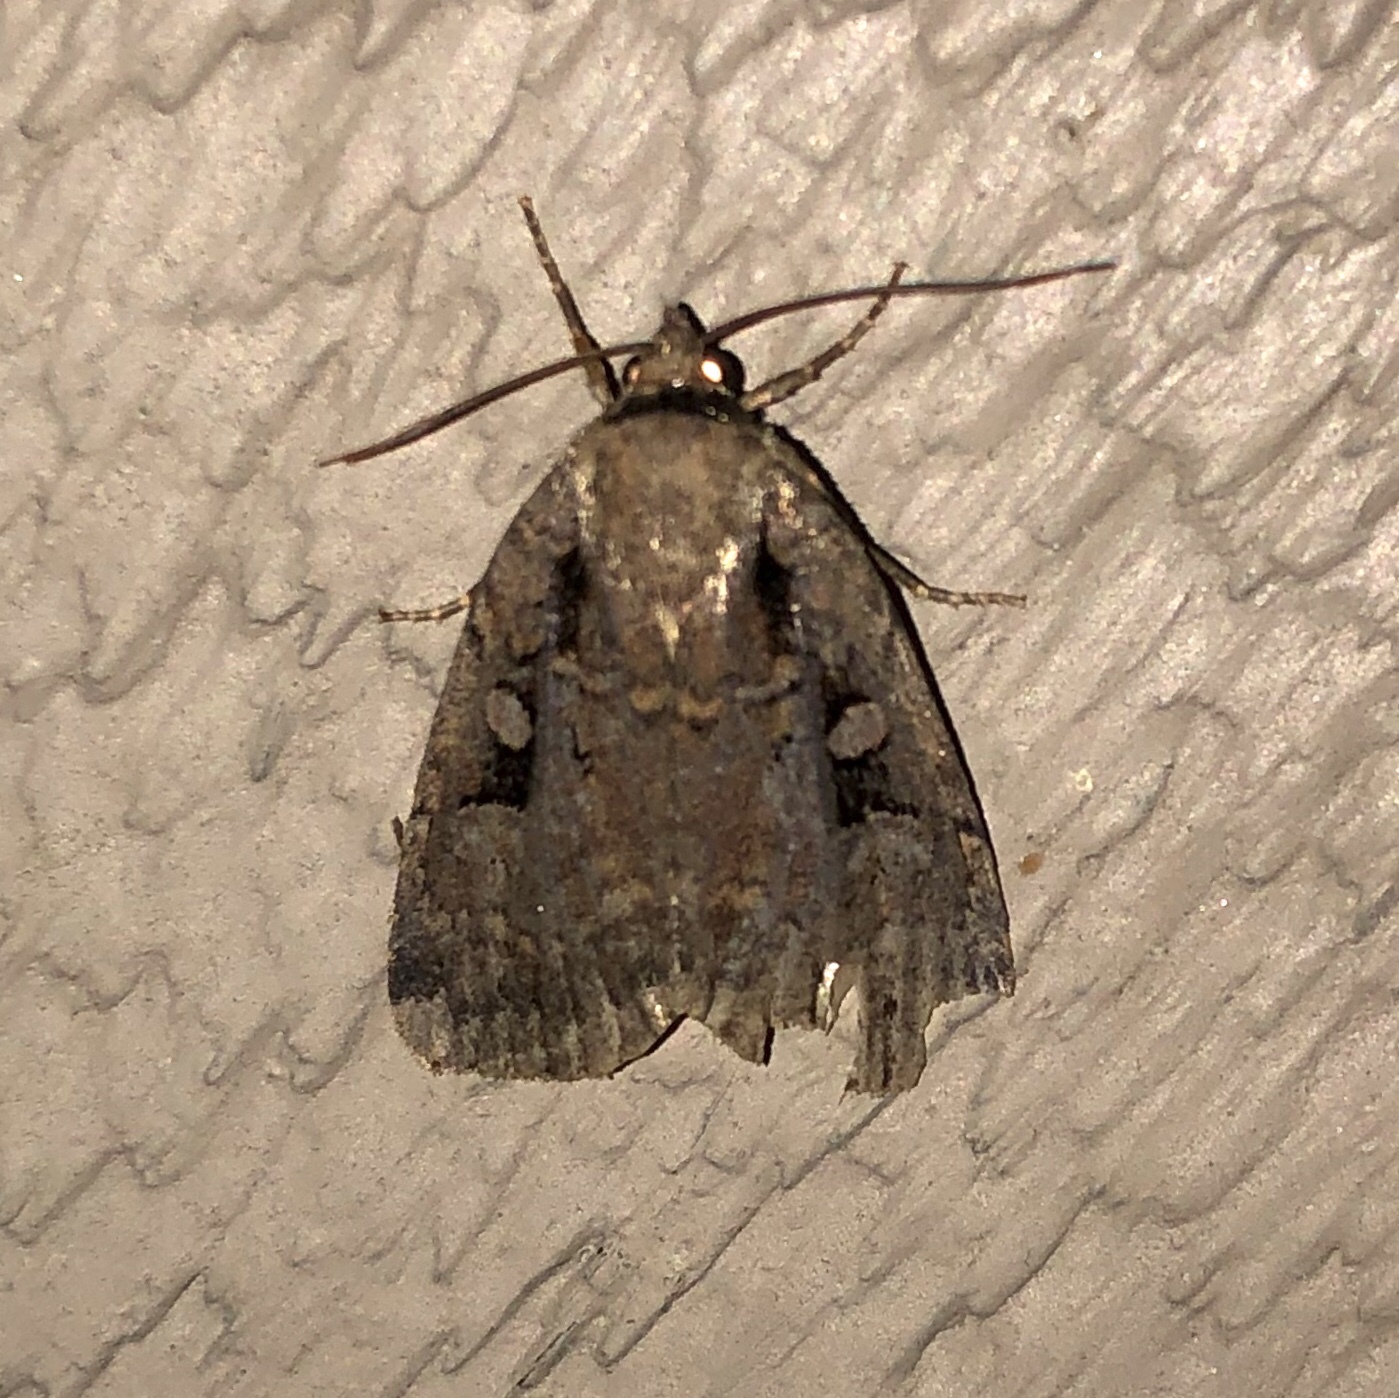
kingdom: Animalia
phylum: Arthropoda
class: Insecta
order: Lepidoptera
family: Noctuidae
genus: Eueretagrotis
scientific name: Eueretagrotis perattentus
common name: Two-spot dart moth
